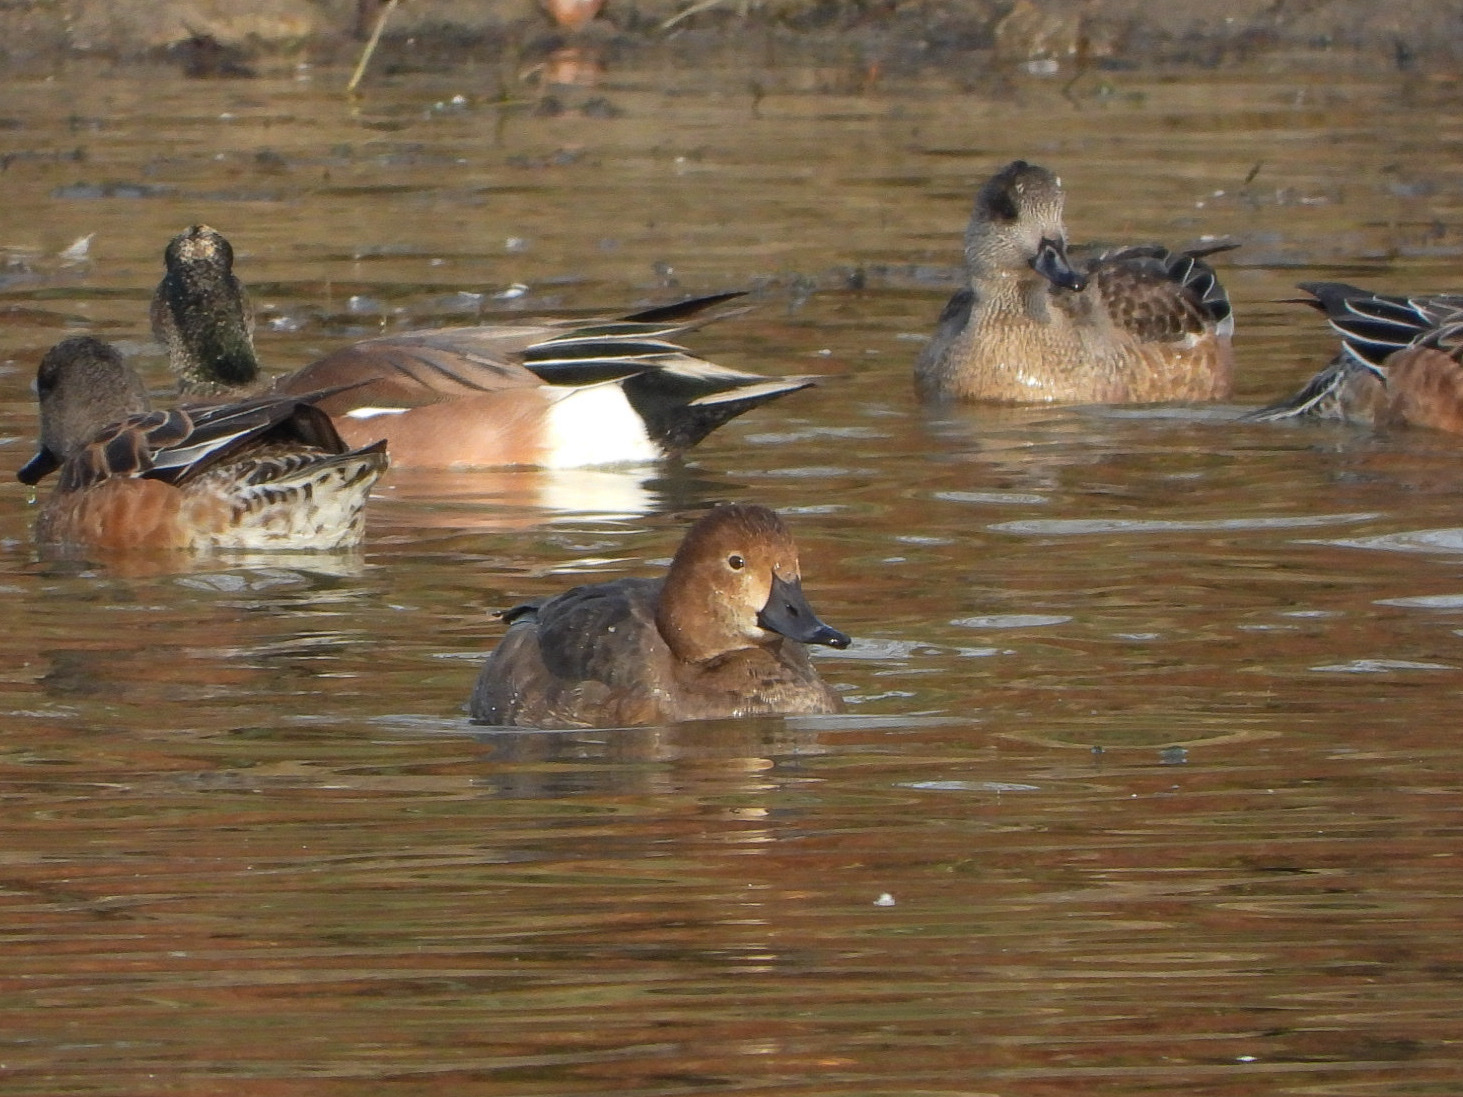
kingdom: Animalia
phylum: Chordata
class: Aves
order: Anseriformes
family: Anatidae
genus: Aythya
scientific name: Aythya americana
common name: Redhead
